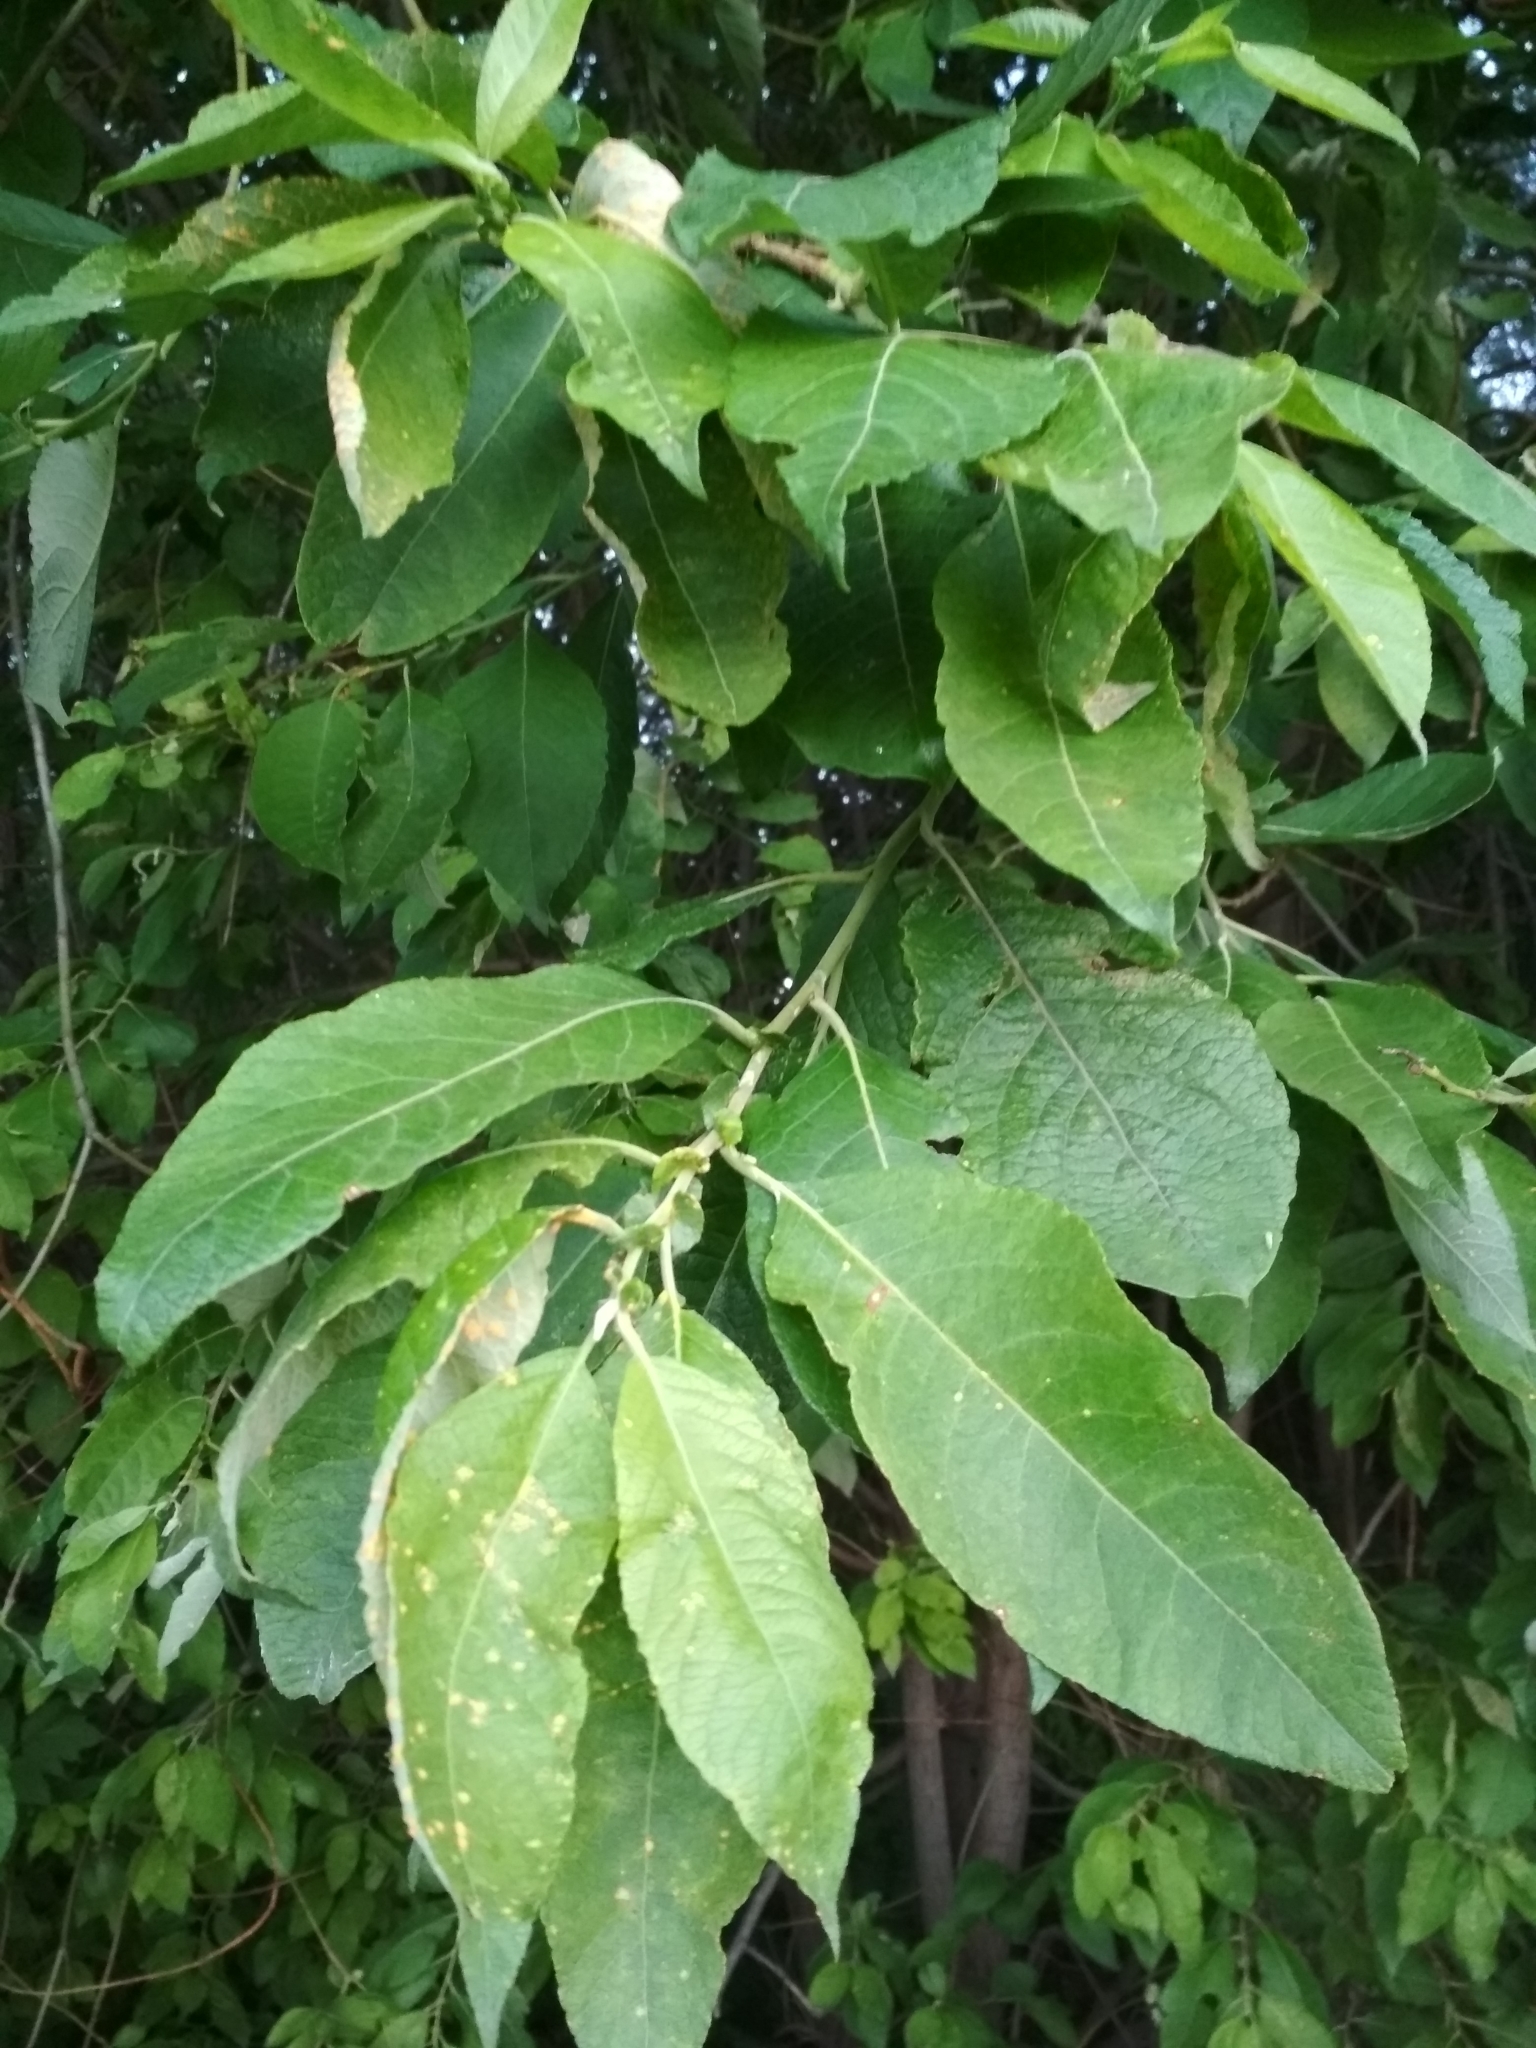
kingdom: Plantae
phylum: Tracheophyta
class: Magnoliopsida
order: Malpighiales
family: Salicaceae
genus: Salix
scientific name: Salix caprea
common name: Goat willow
